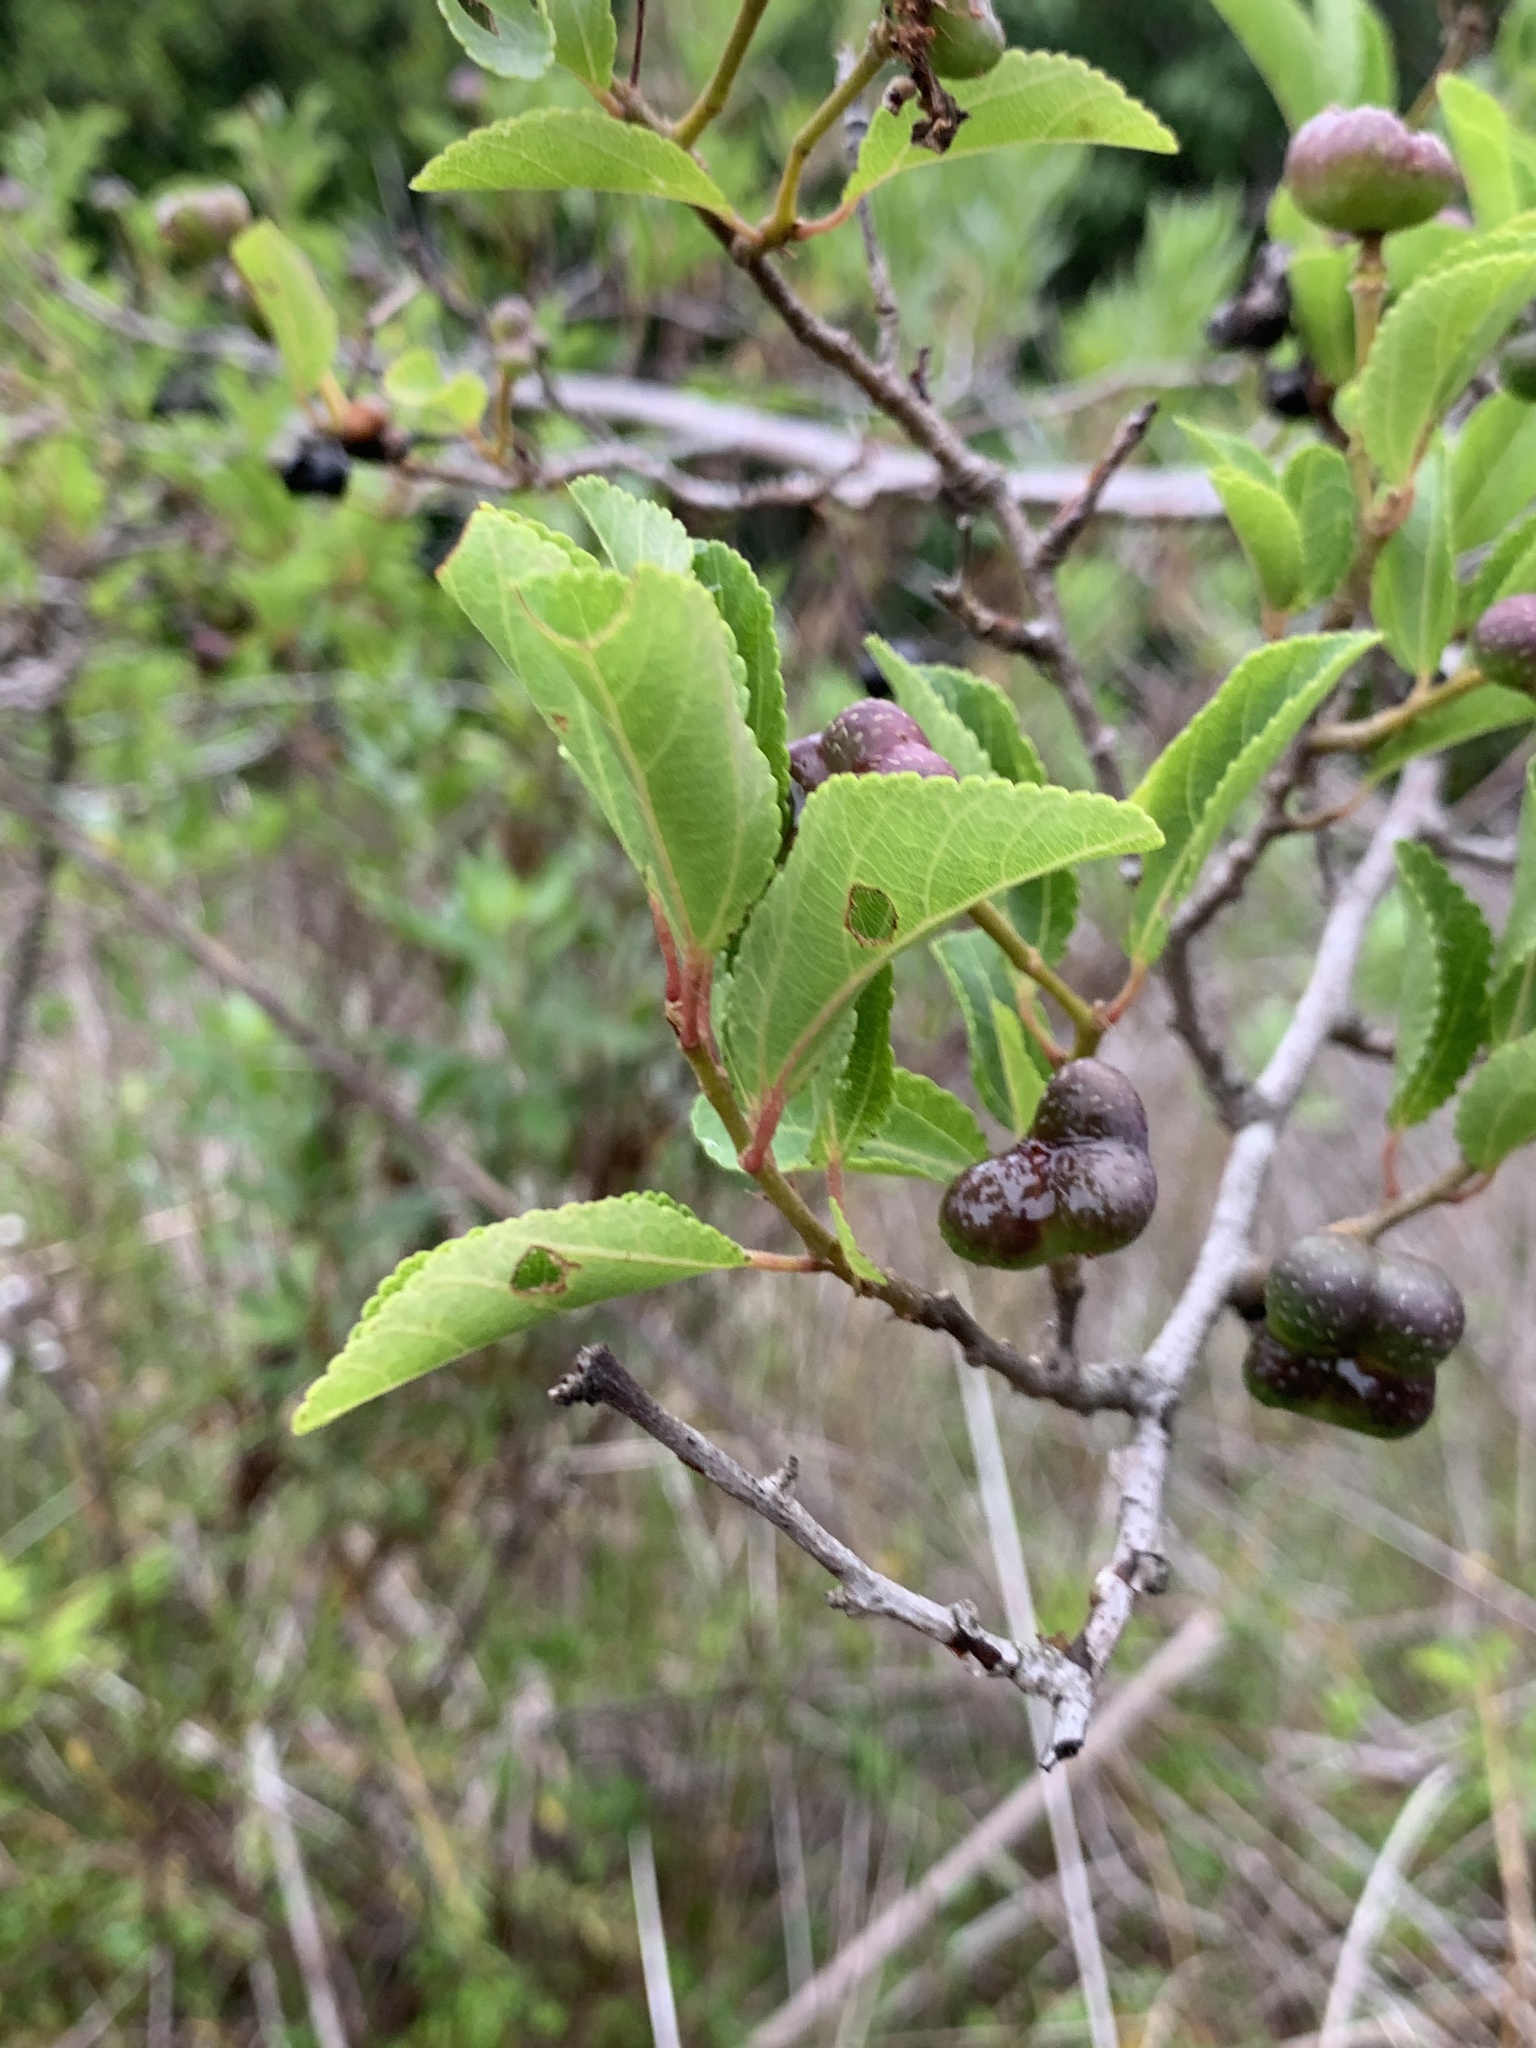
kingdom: Plantae
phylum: Tracheophyta
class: Magnoliopsida
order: Malvales
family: Malvaceae
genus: Grewia
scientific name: Grewia occidentalis
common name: Crossberry
